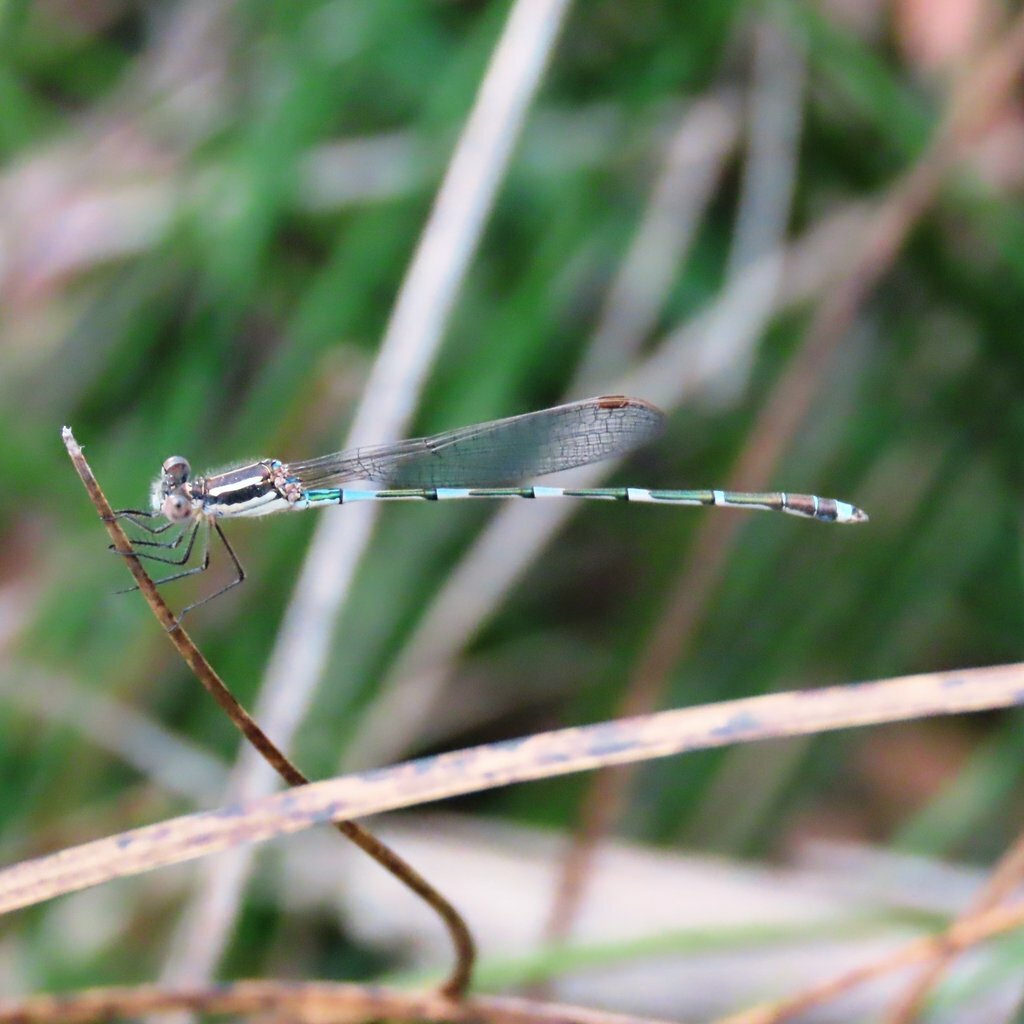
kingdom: Animalia
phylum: Arthropoda
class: Insecta
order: Odonata
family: Lestidae
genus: Austrolestes
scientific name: Austrolestes leda
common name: Wandering ringtail
